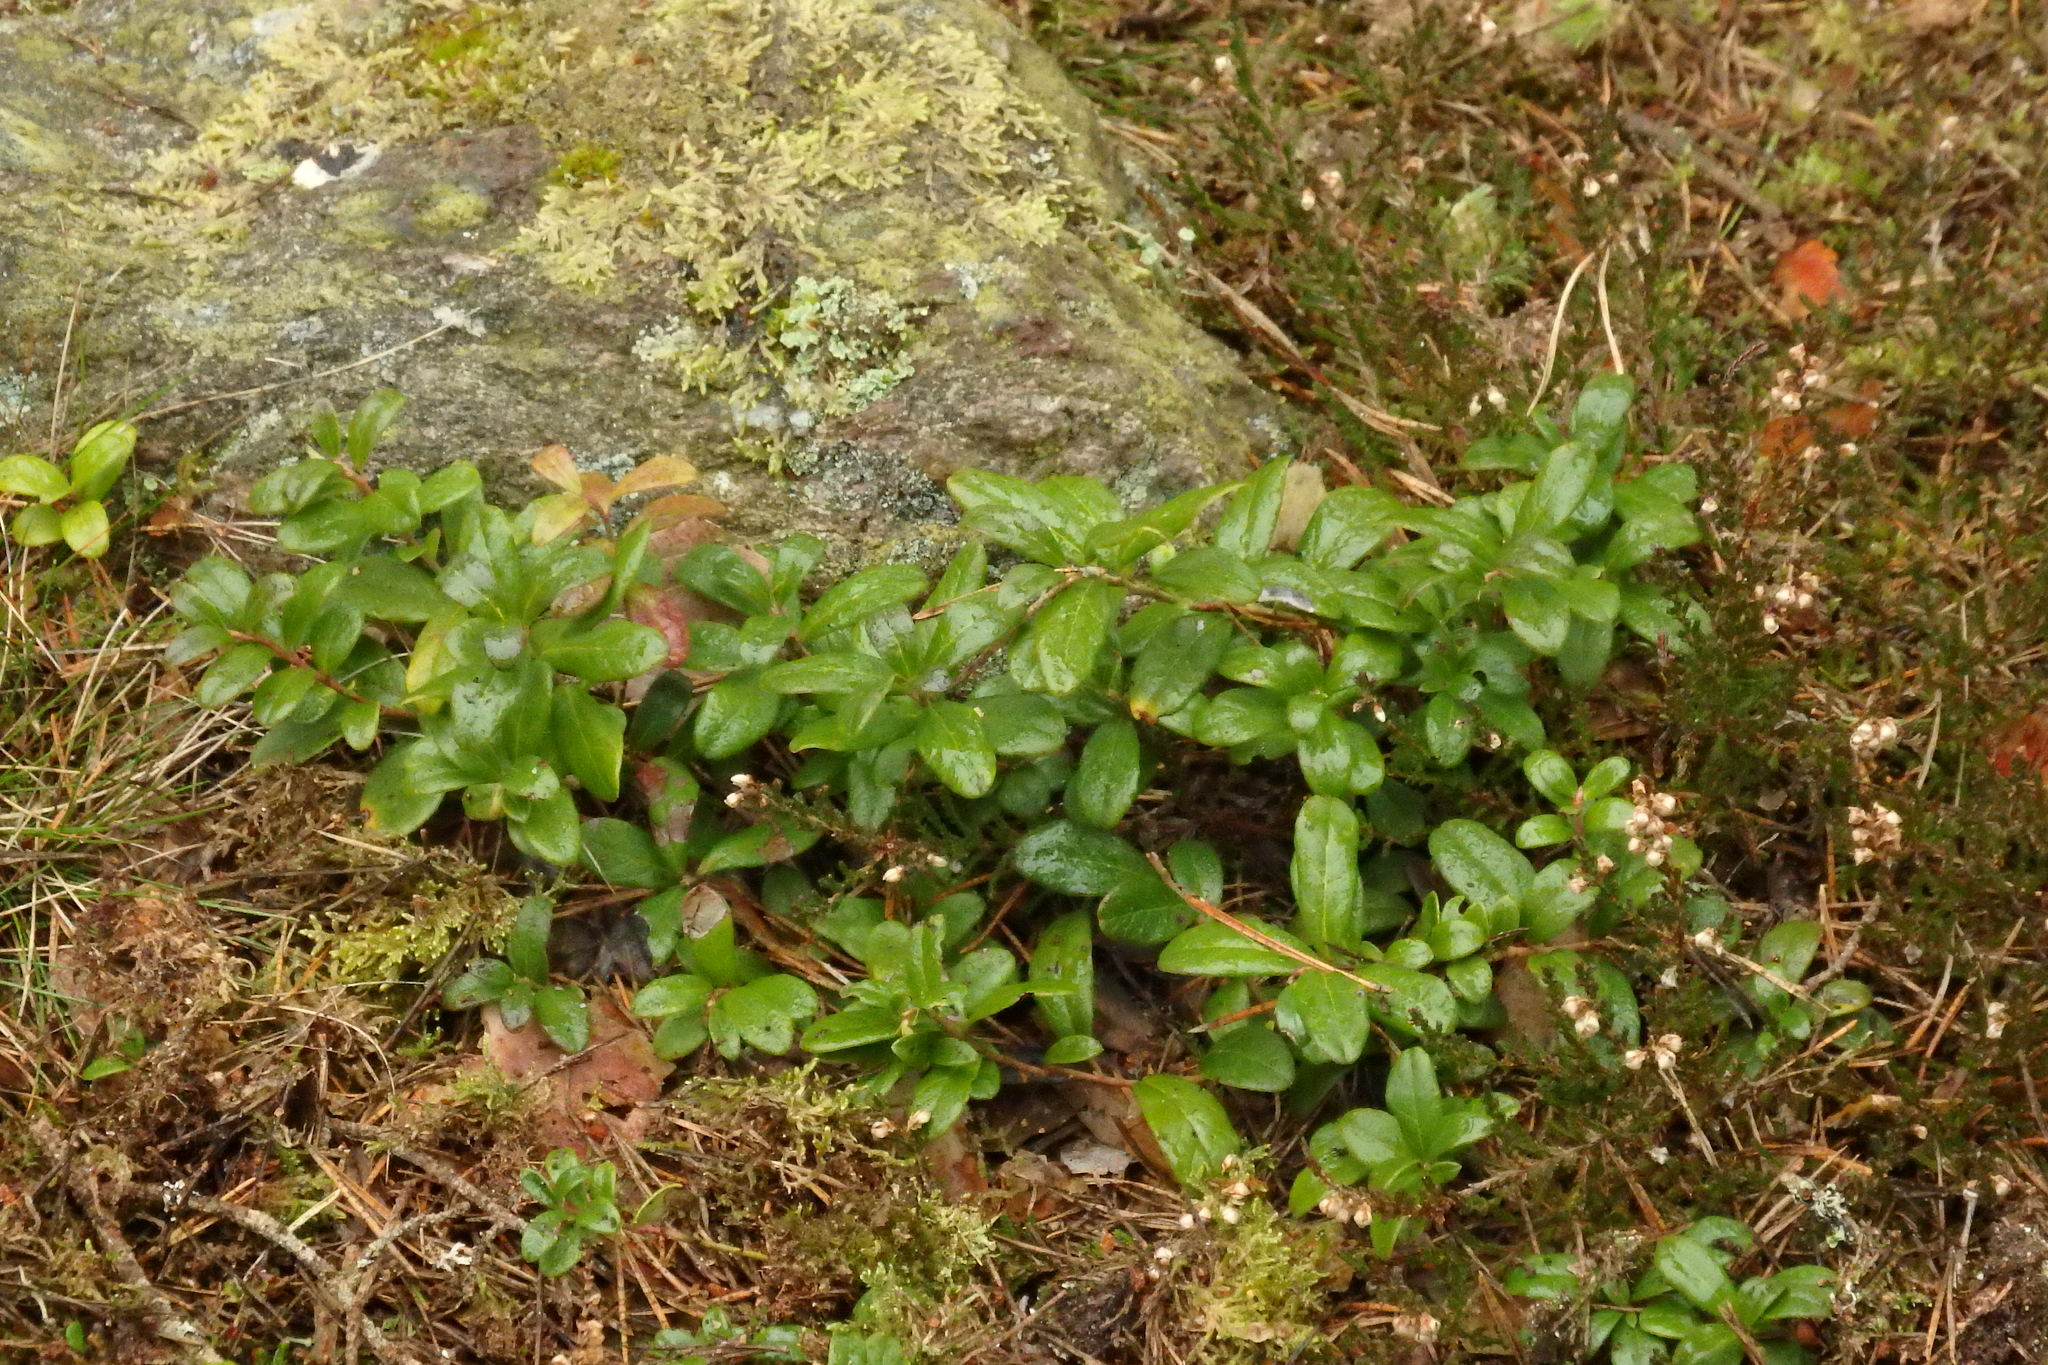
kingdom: Plantae
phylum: Tracheophyta
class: Magnoliopsida
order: Ericales
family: Ericaceae
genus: Vaccinium
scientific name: Vaccinium vitis-idaea
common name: Cowberry
